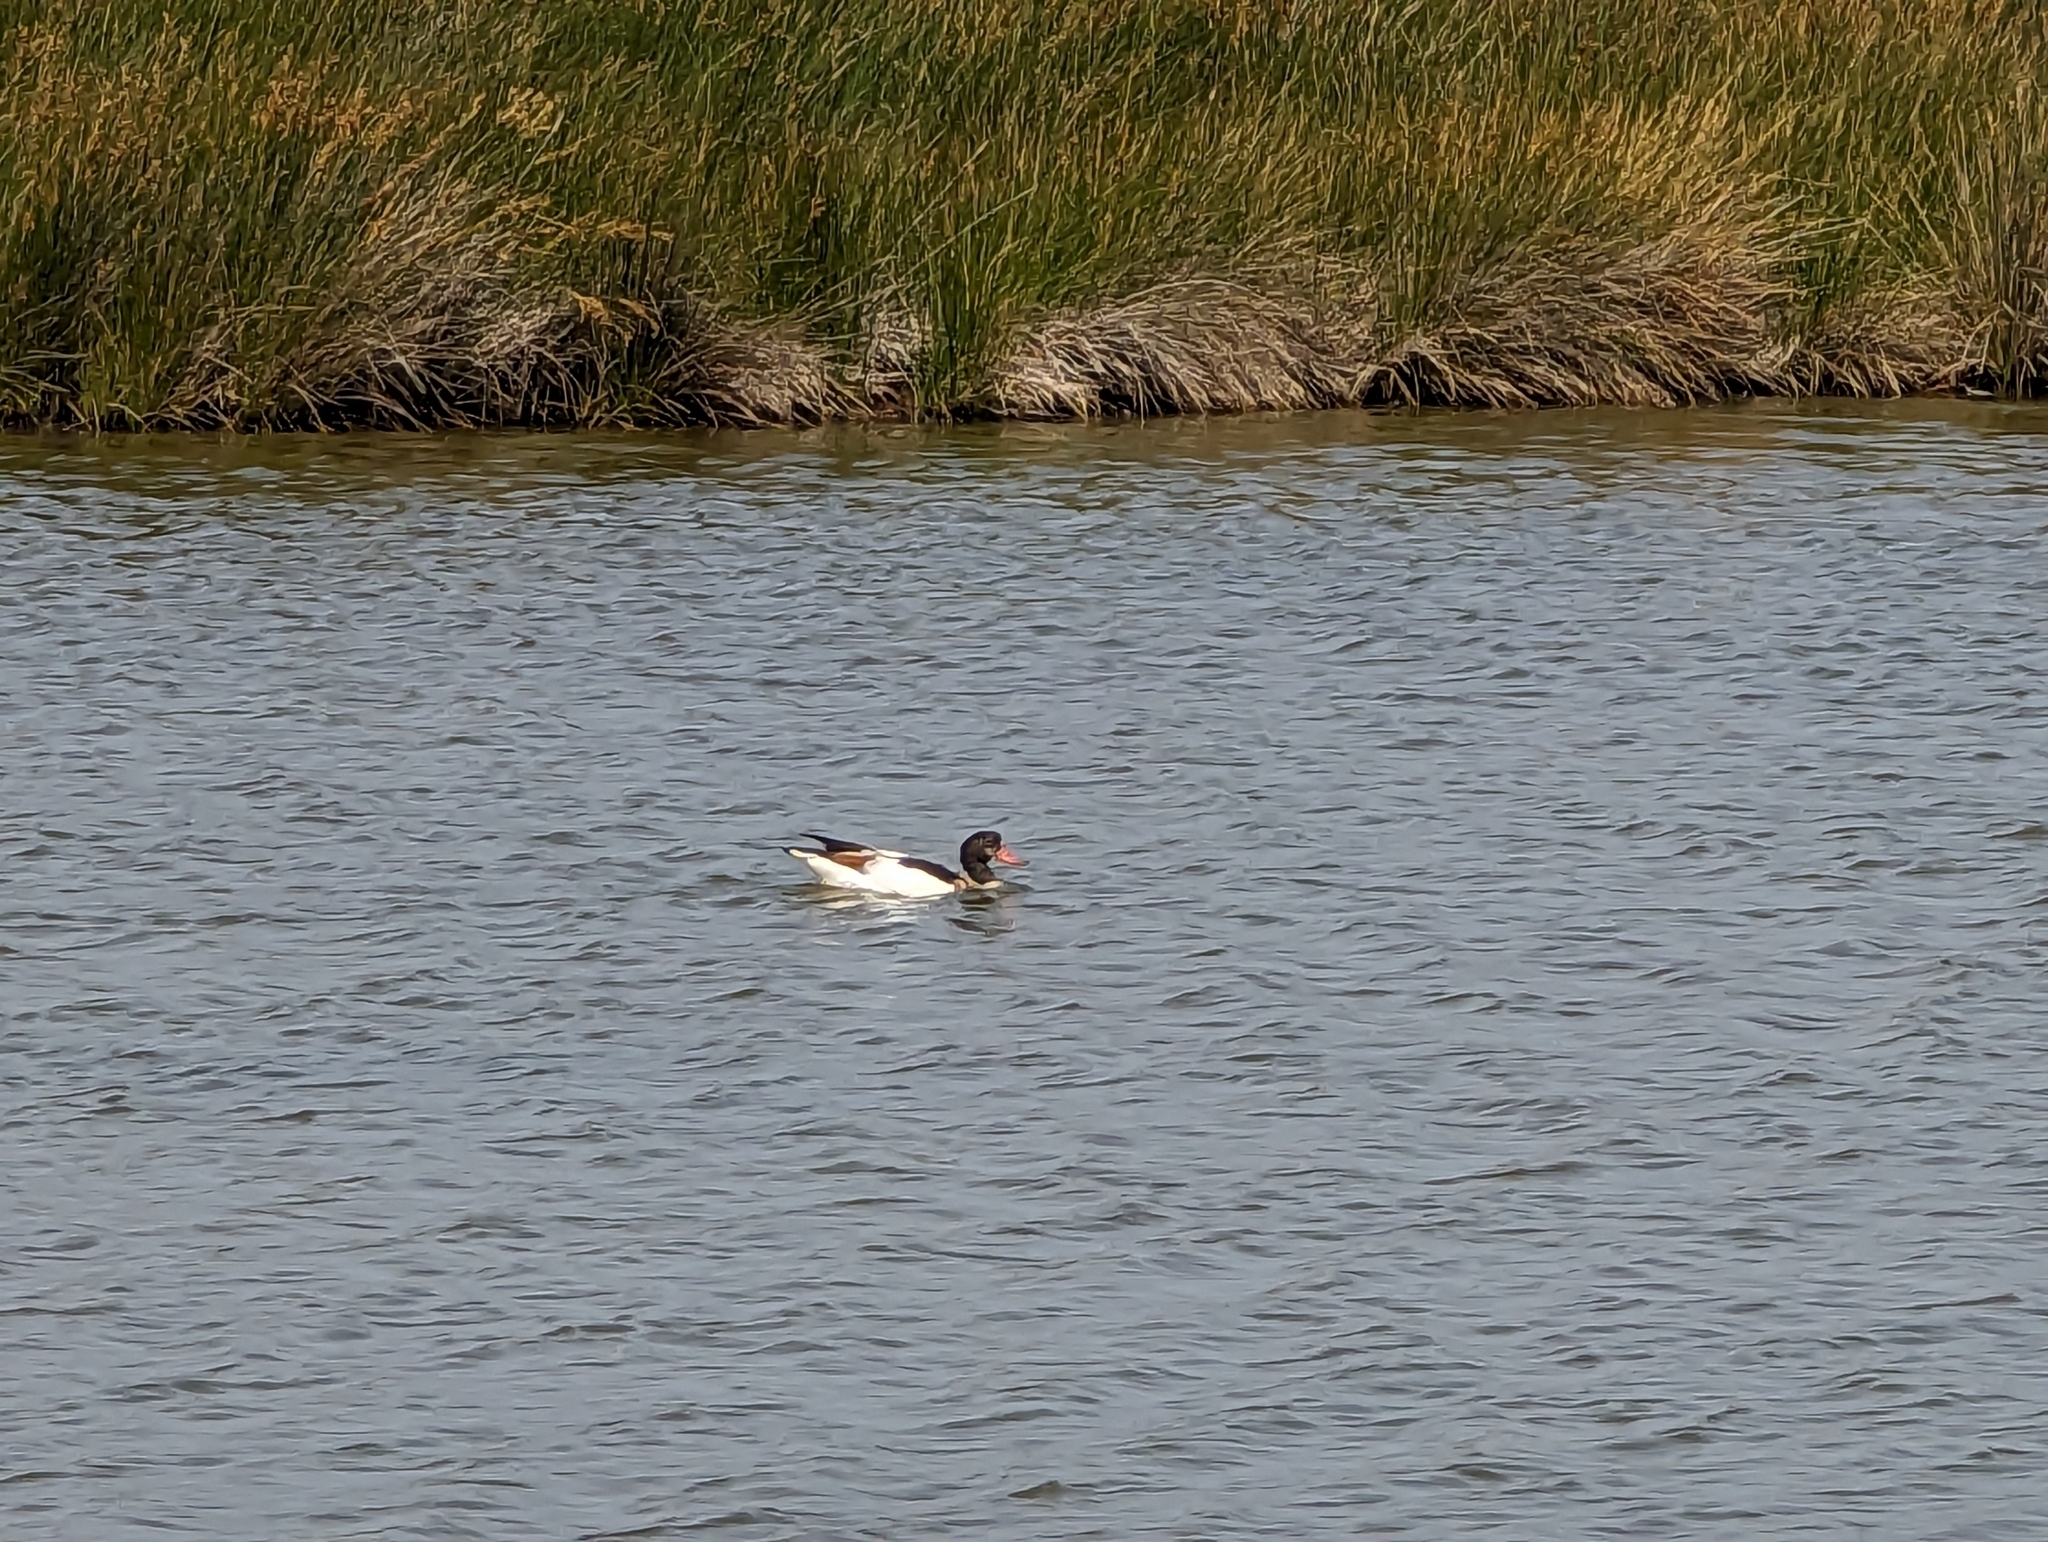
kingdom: Animalia
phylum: Chordata
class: Aves
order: Anseriformes
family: Anatidae
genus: Tadorna
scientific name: Tadorna tadorna
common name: Common shelduck
